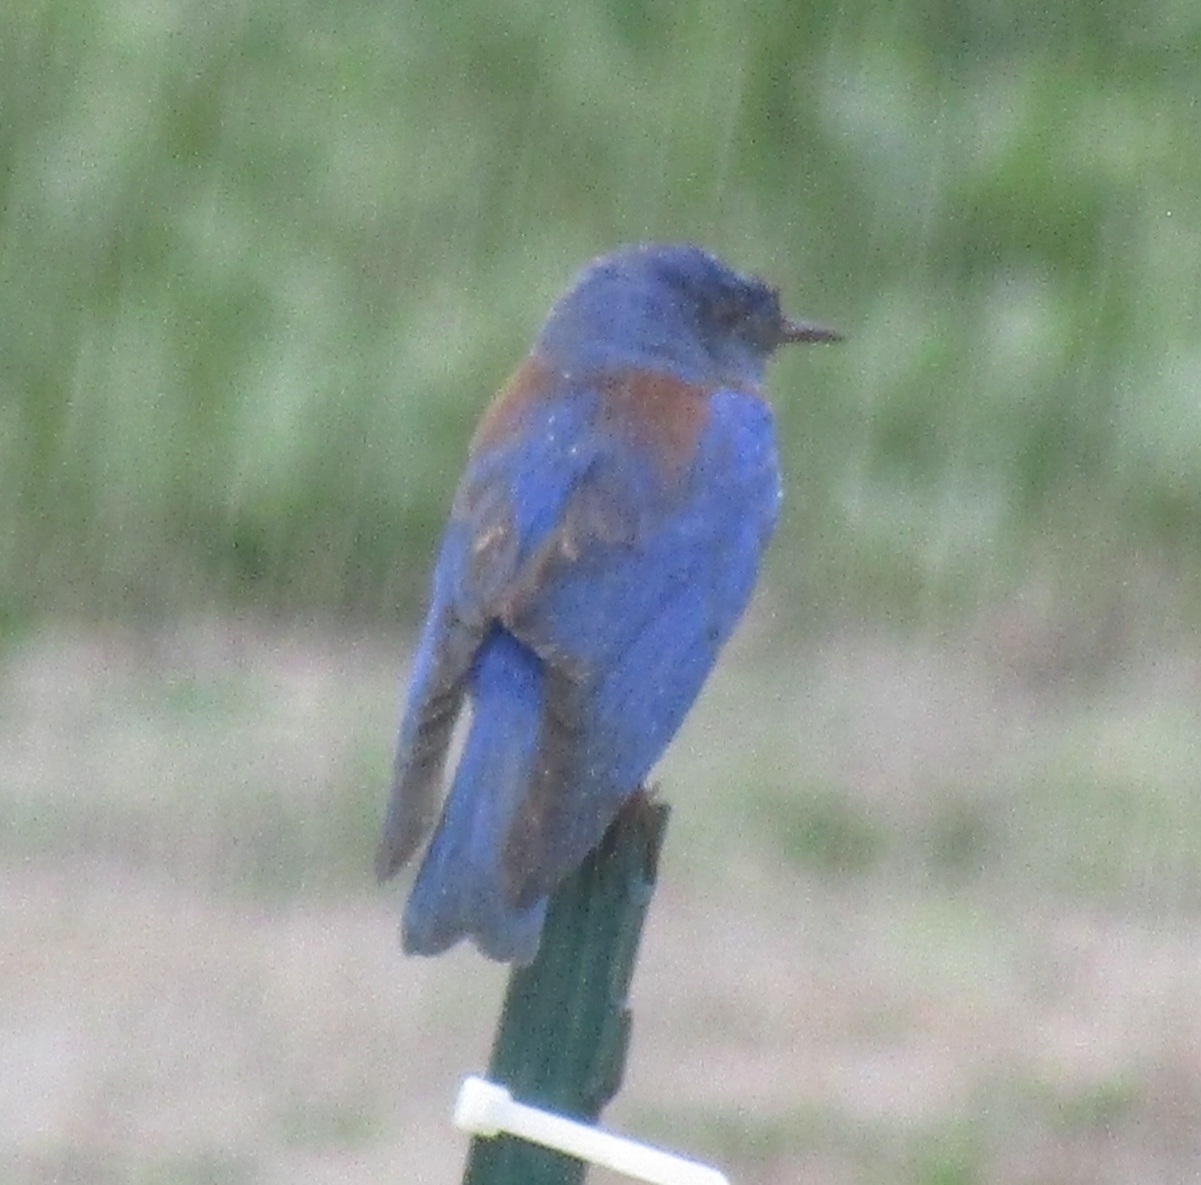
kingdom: Animalia
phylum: Chordata
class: Aves
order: Passeriformes
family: Turdidae
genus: Sialia
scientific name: Sialia mexicana
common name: Western bluebird
